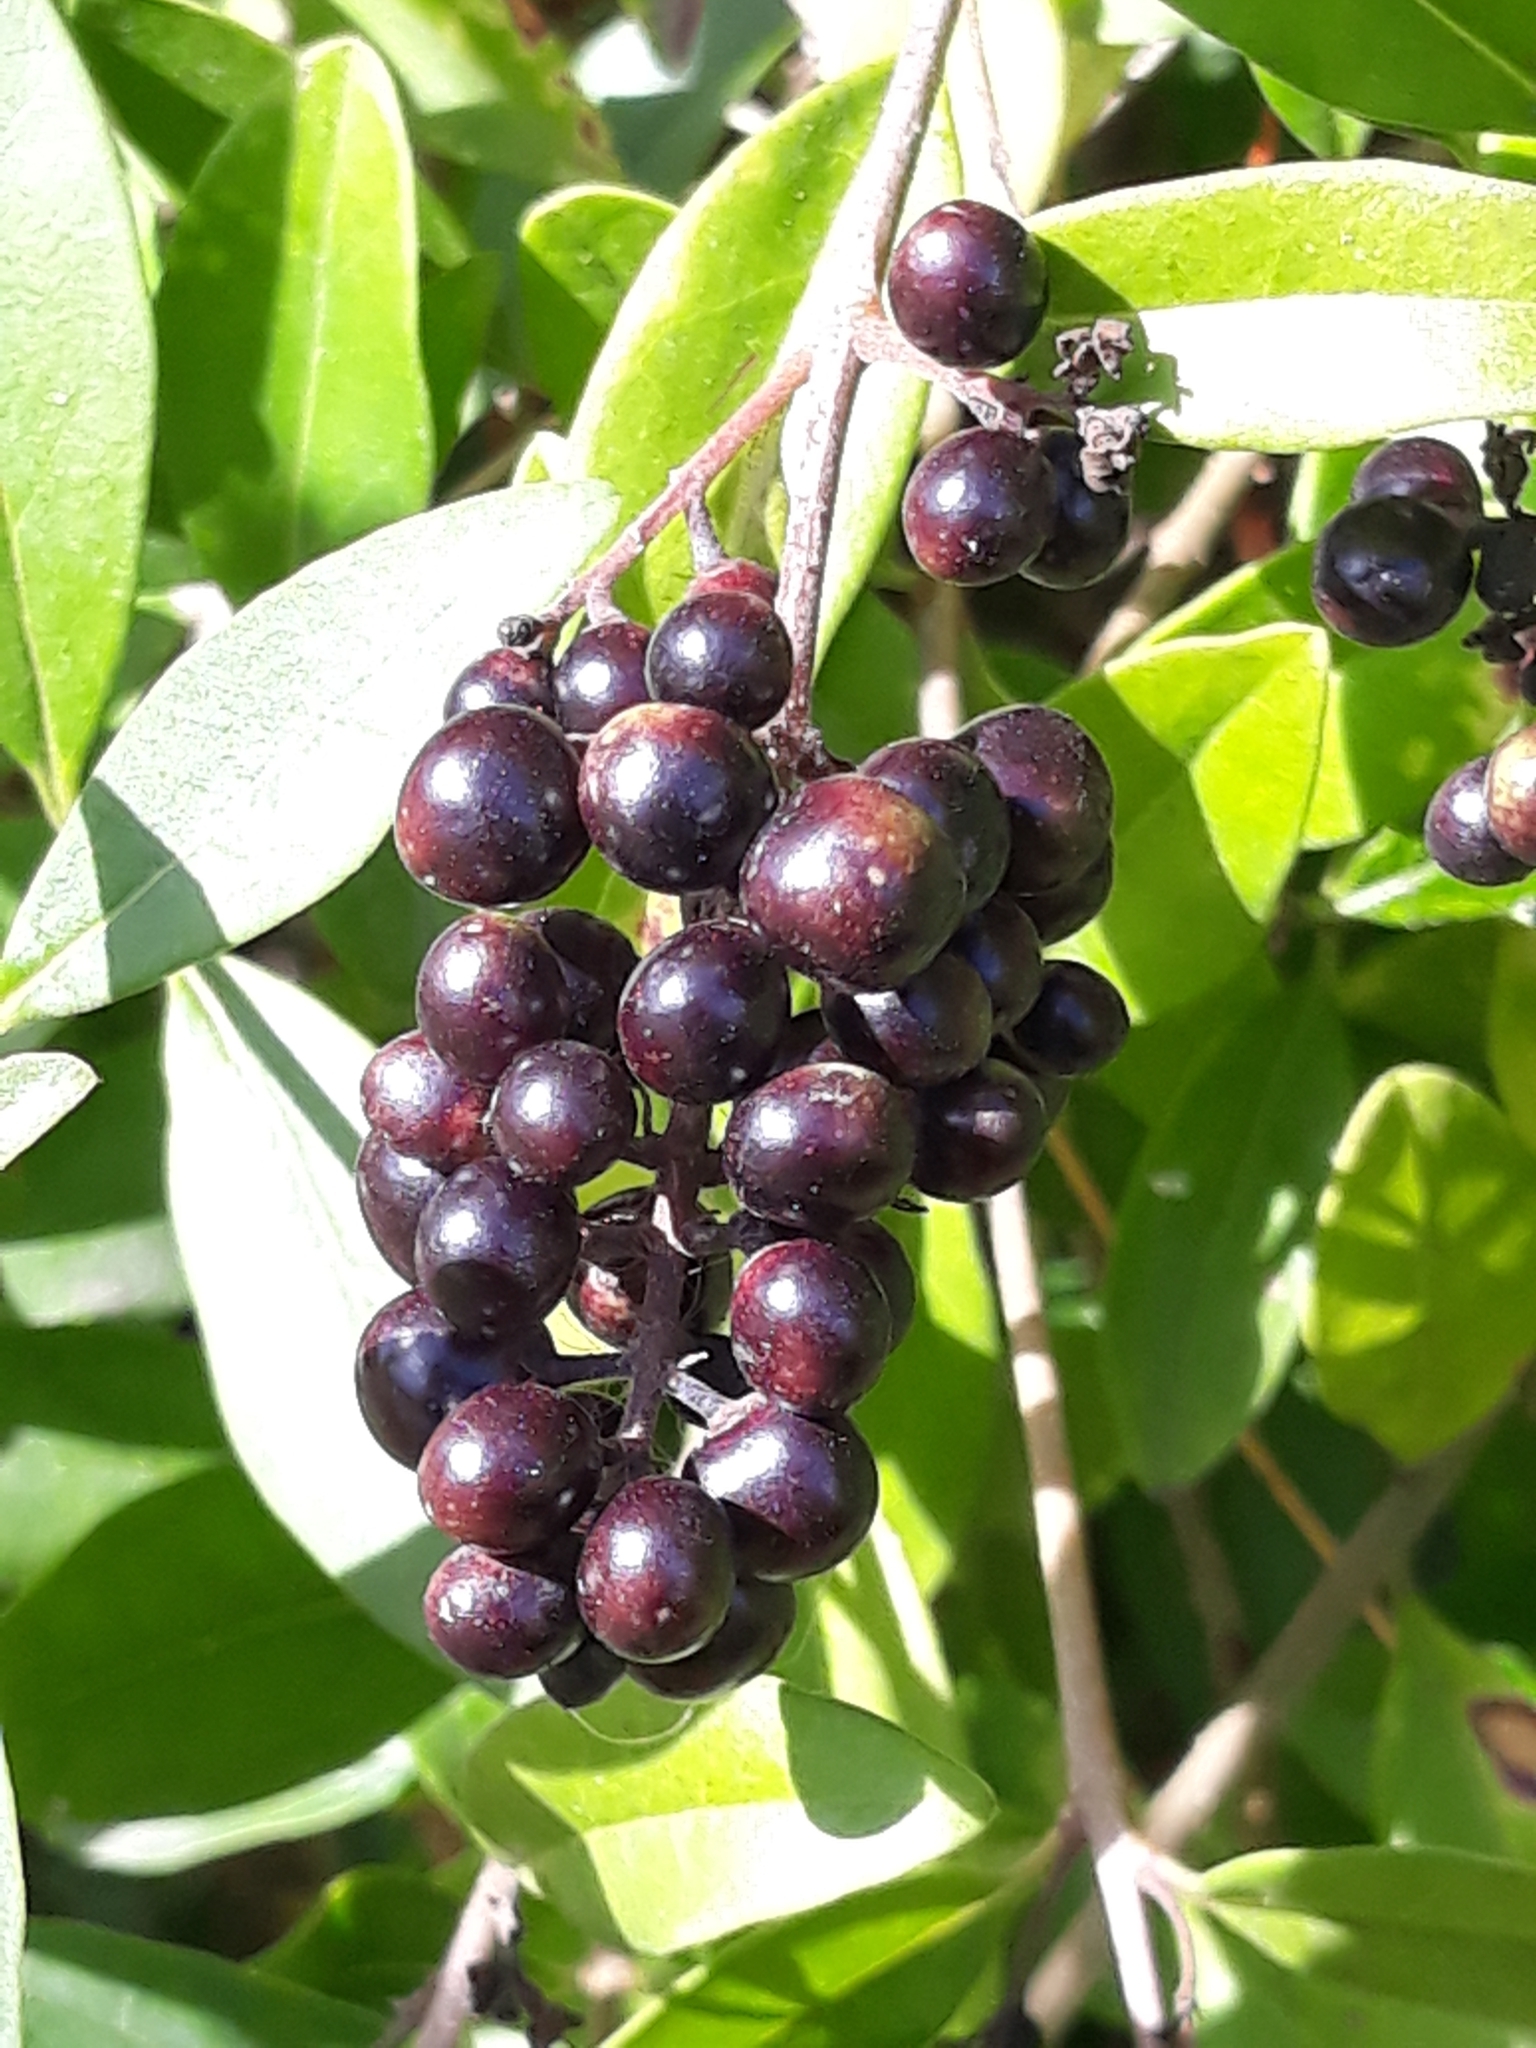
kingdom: Plantae
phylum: Tracheophyta
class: Magnoliopsida
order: Lamiales
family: Oleaceae
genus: Ligustrum
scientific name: Ligustrum vulgare
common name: Wild privet
